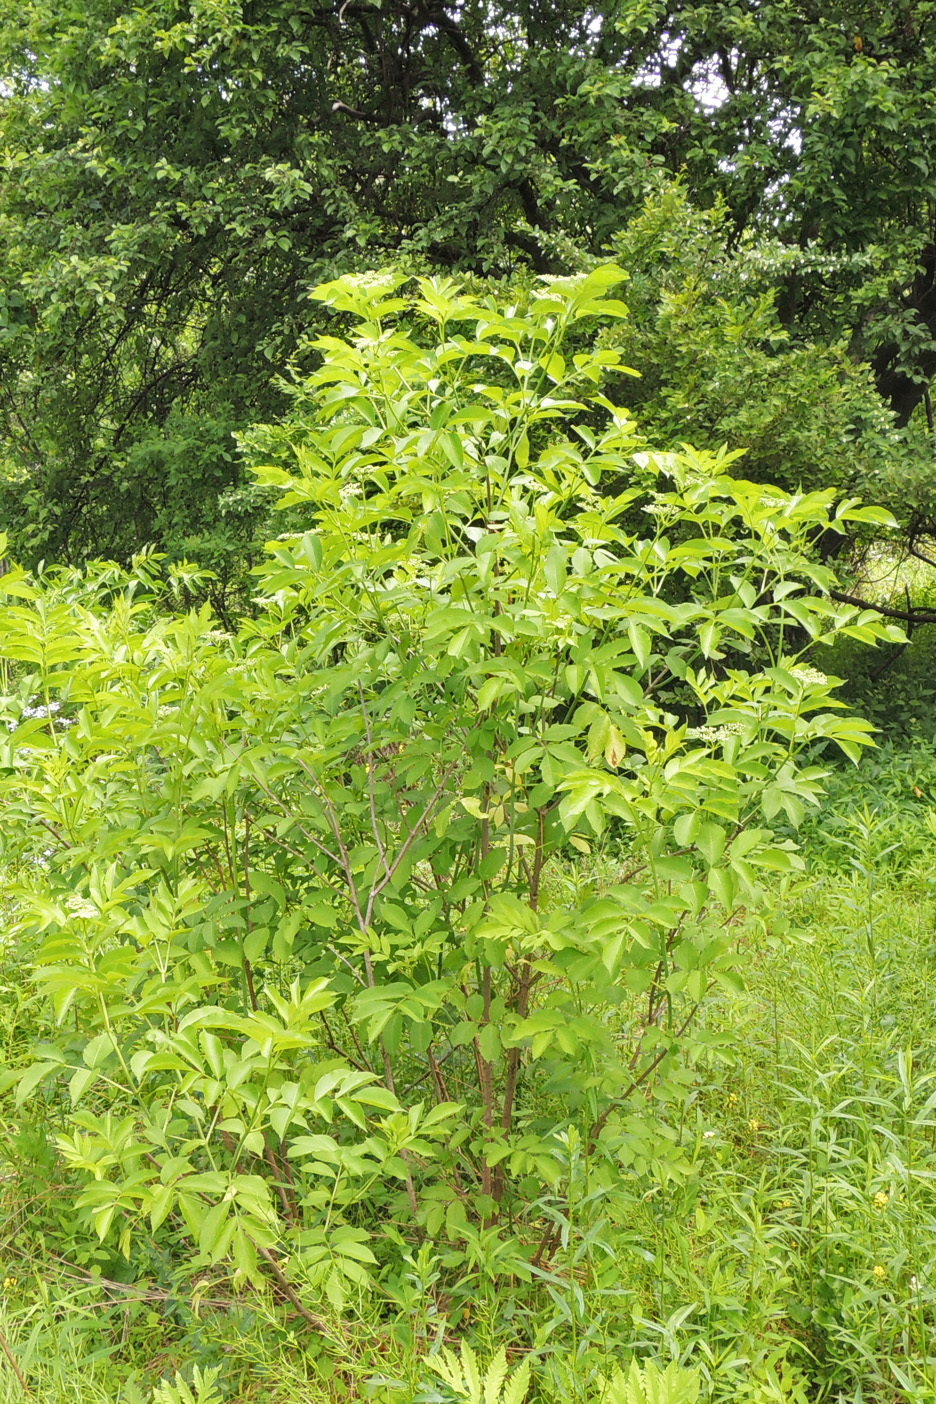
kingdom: Plantae
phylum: Tracheophyta
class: Magnoliopsida
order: Dipsacales
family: Viburnaceae
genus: Sambucus
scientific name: Sambucus canadensis
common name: American elder
